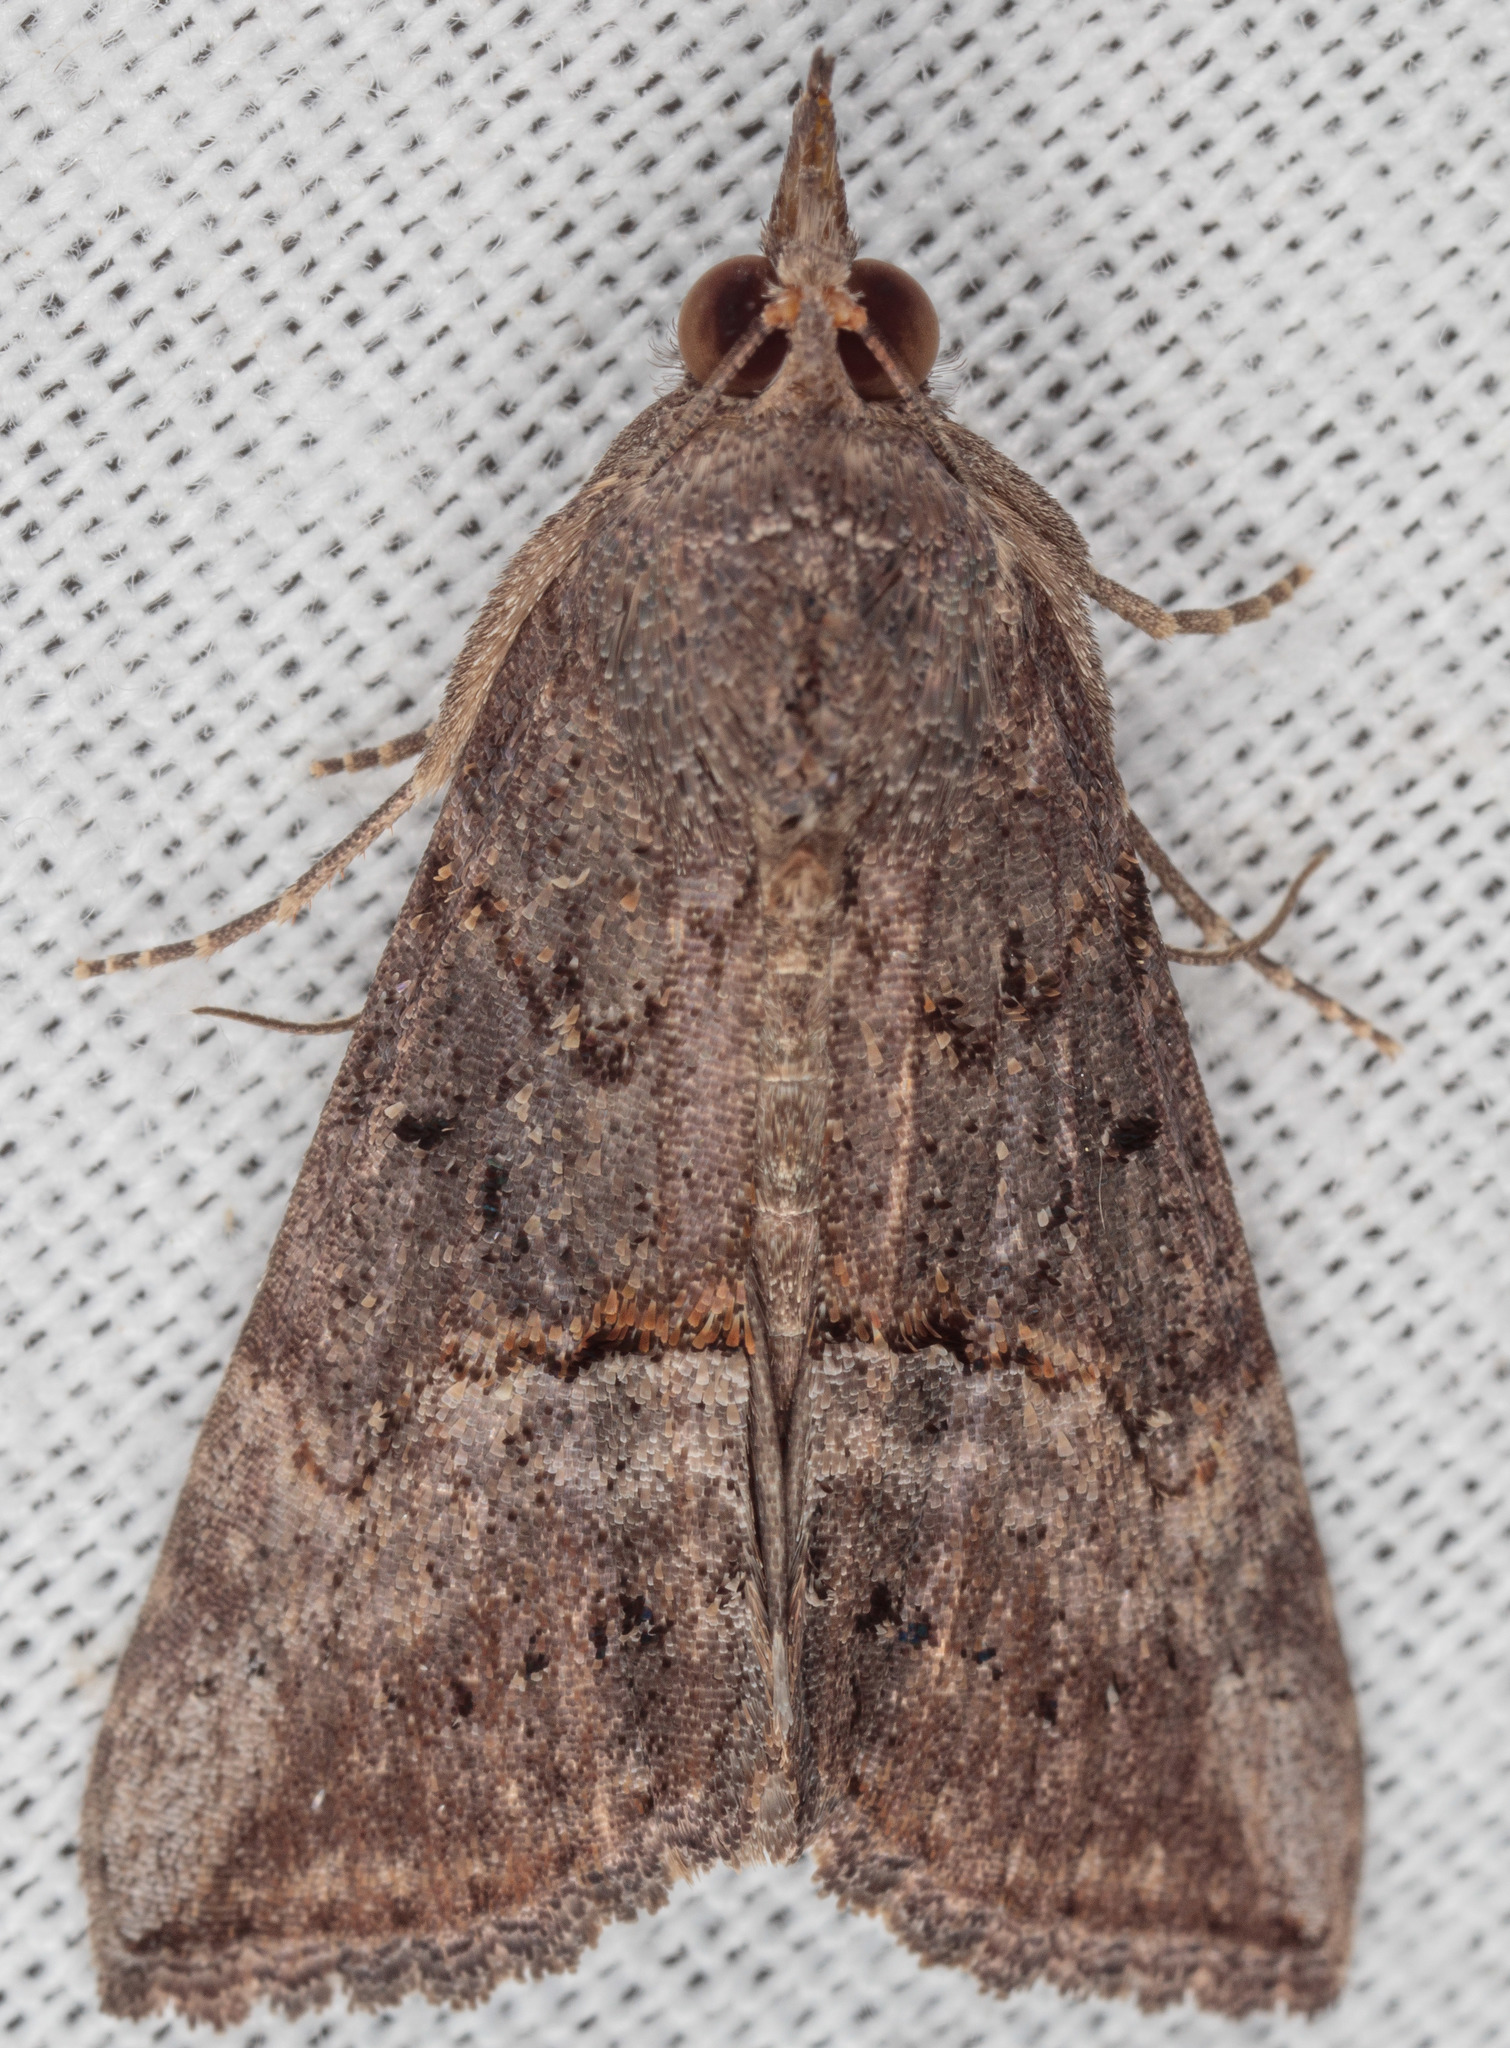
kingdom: Animalia
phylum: Arthropoda
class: Insecta
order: Lepidoptera
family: Erebidae
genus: Hypena
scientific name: Hypena scabra
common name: Green cloverworm
